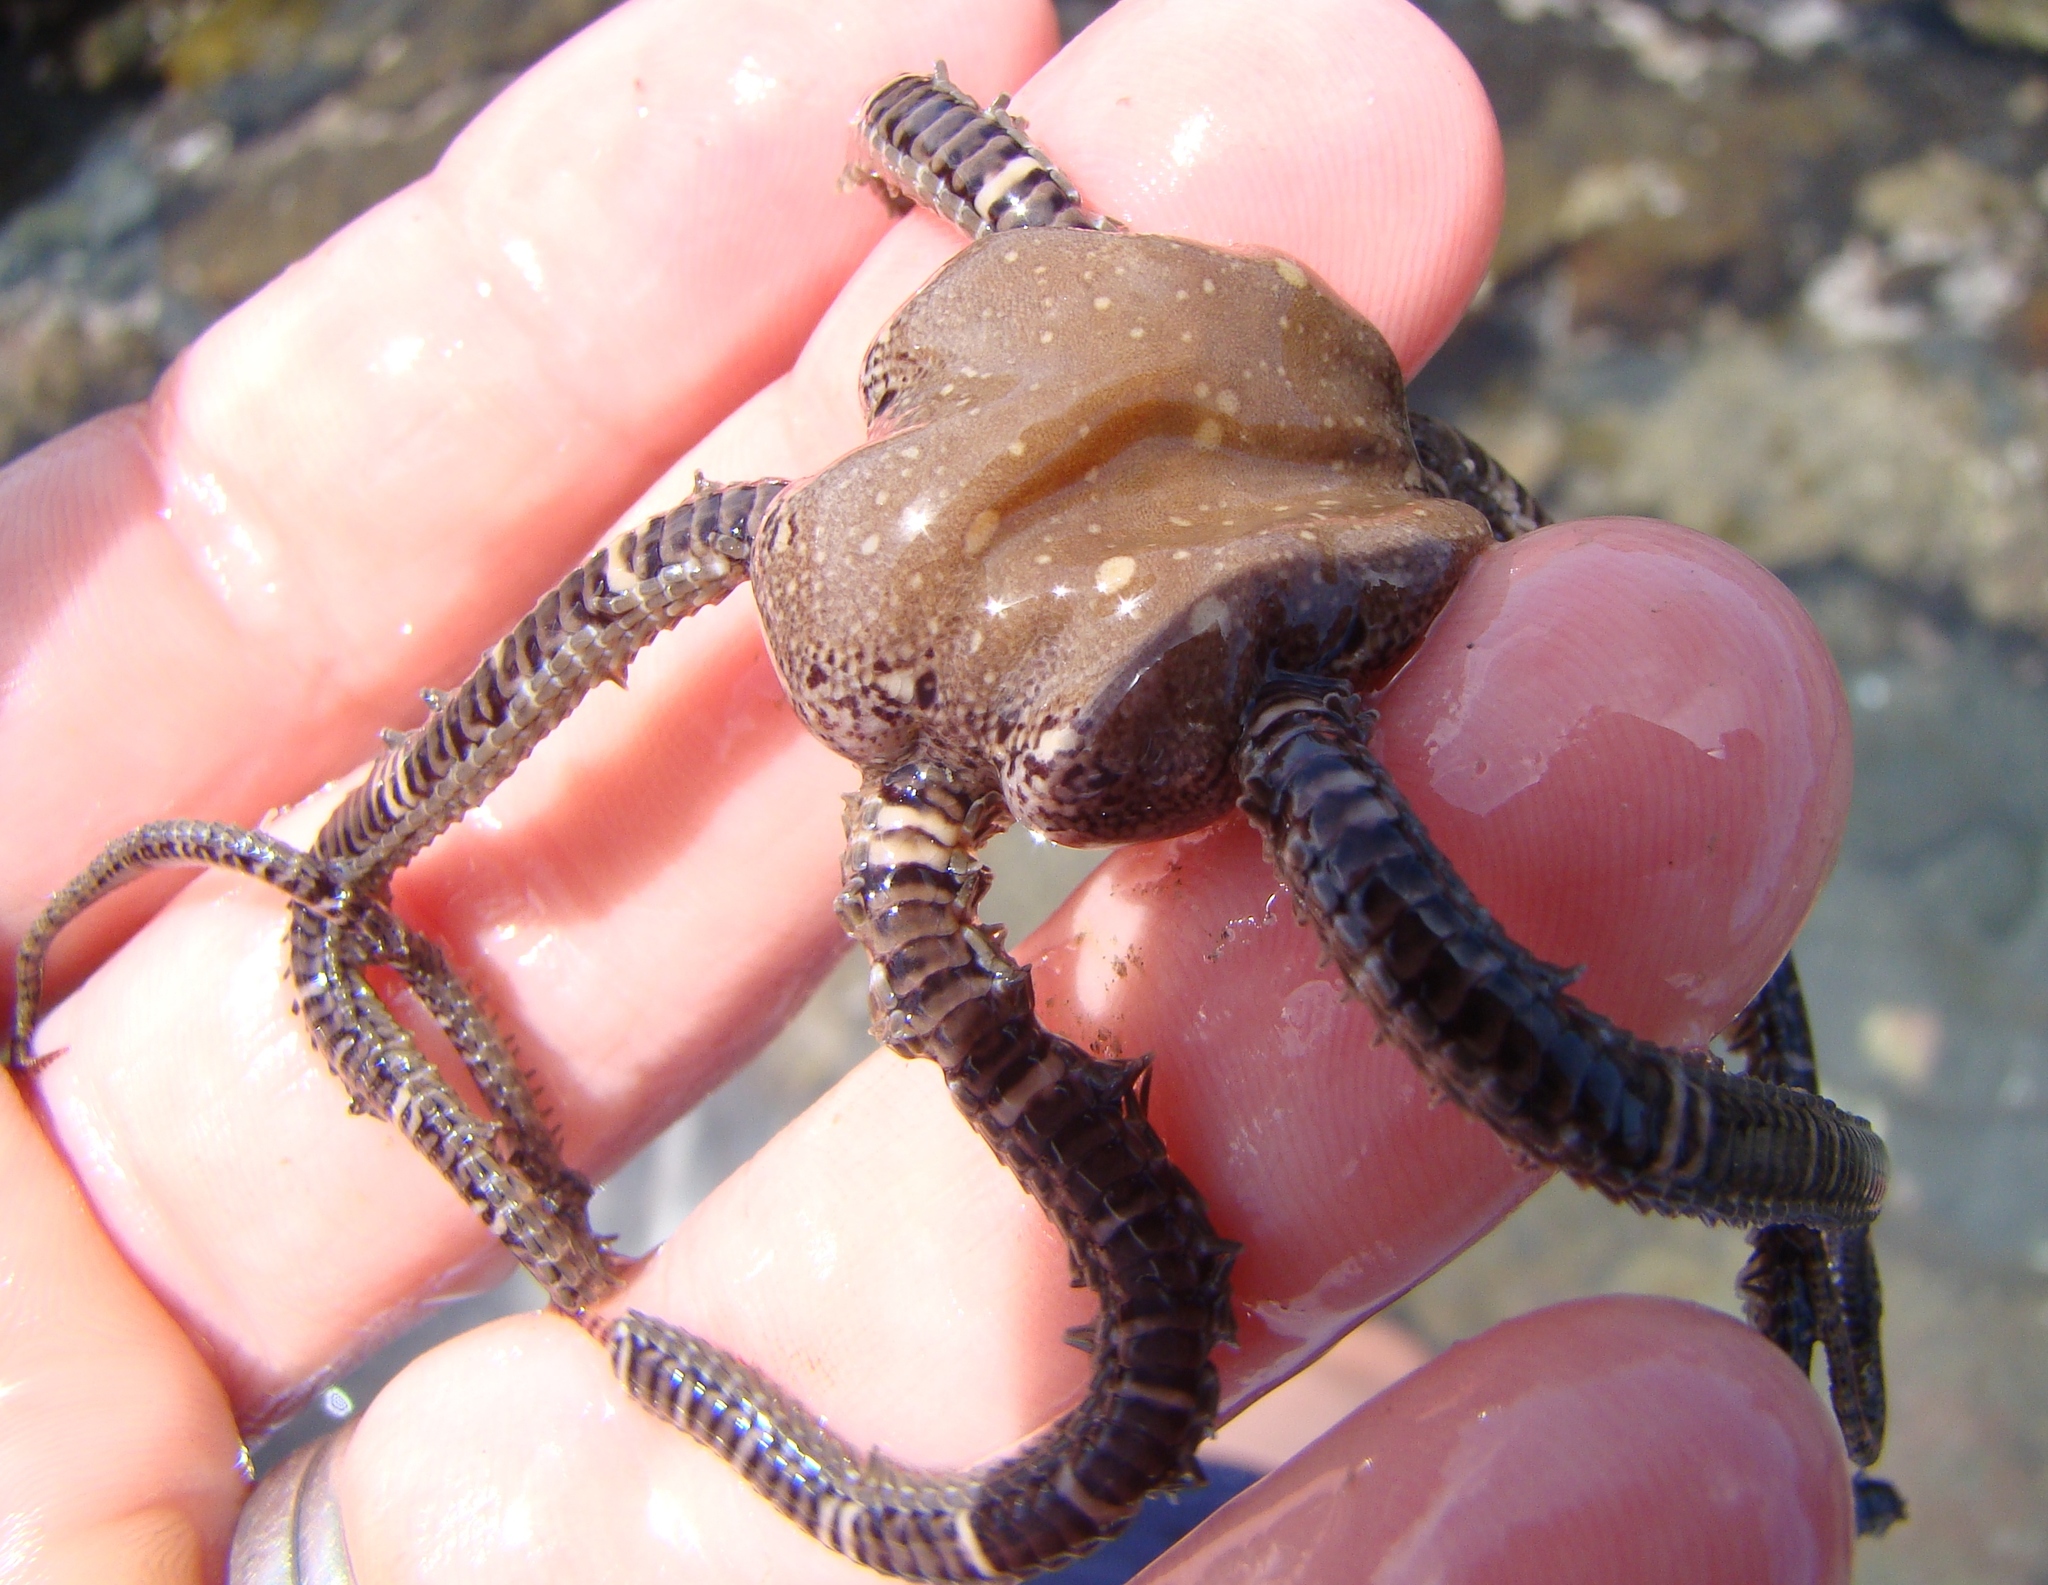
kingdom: Animalia
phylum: Echinodermata
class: Ophiuroidea
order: Amphilepidida
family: Ophionereididae
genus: Ophionereis
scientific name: Ophionereis fasciata
